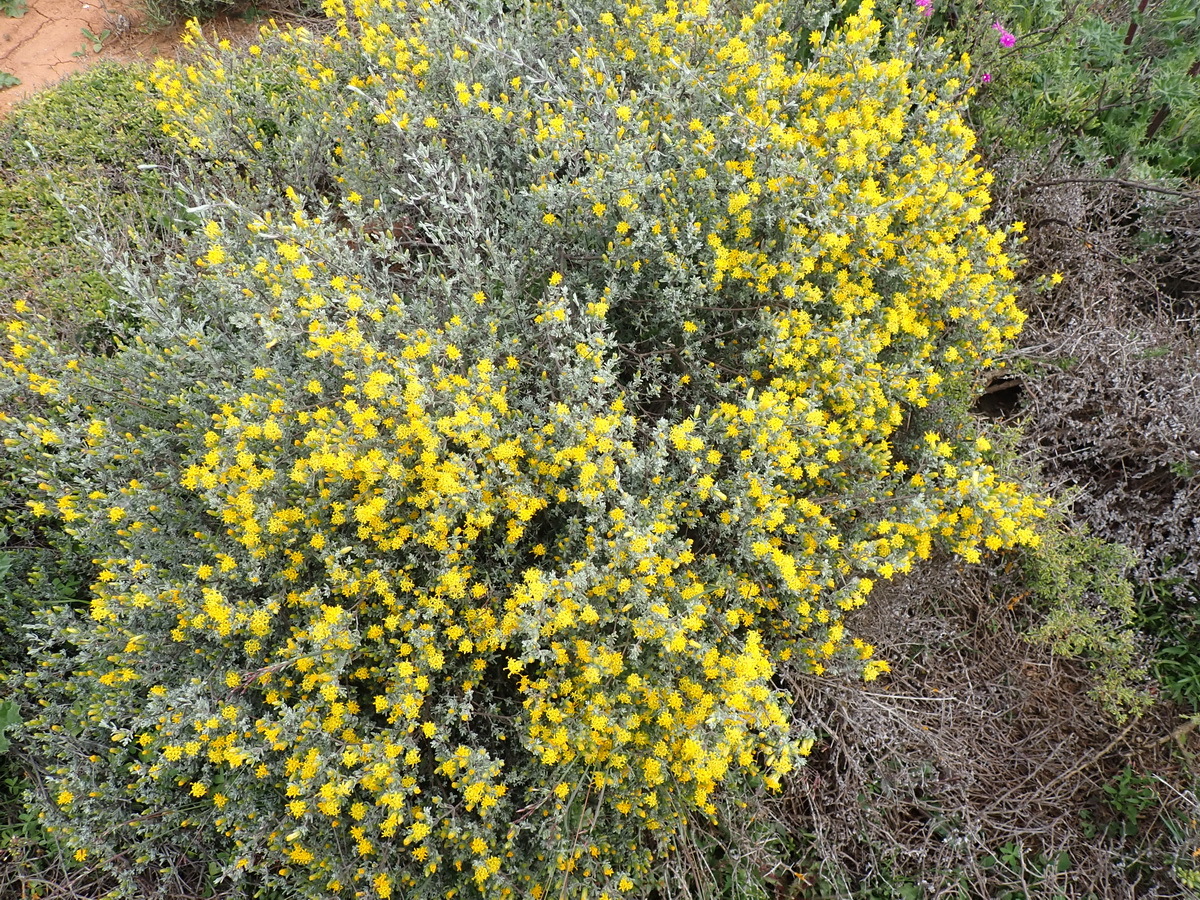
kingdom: Plantae
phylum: Tracheophyta
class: Magnoliopsida
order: Asterales
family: Asteraceae
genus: Pteronia
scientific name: Pteronia incana
